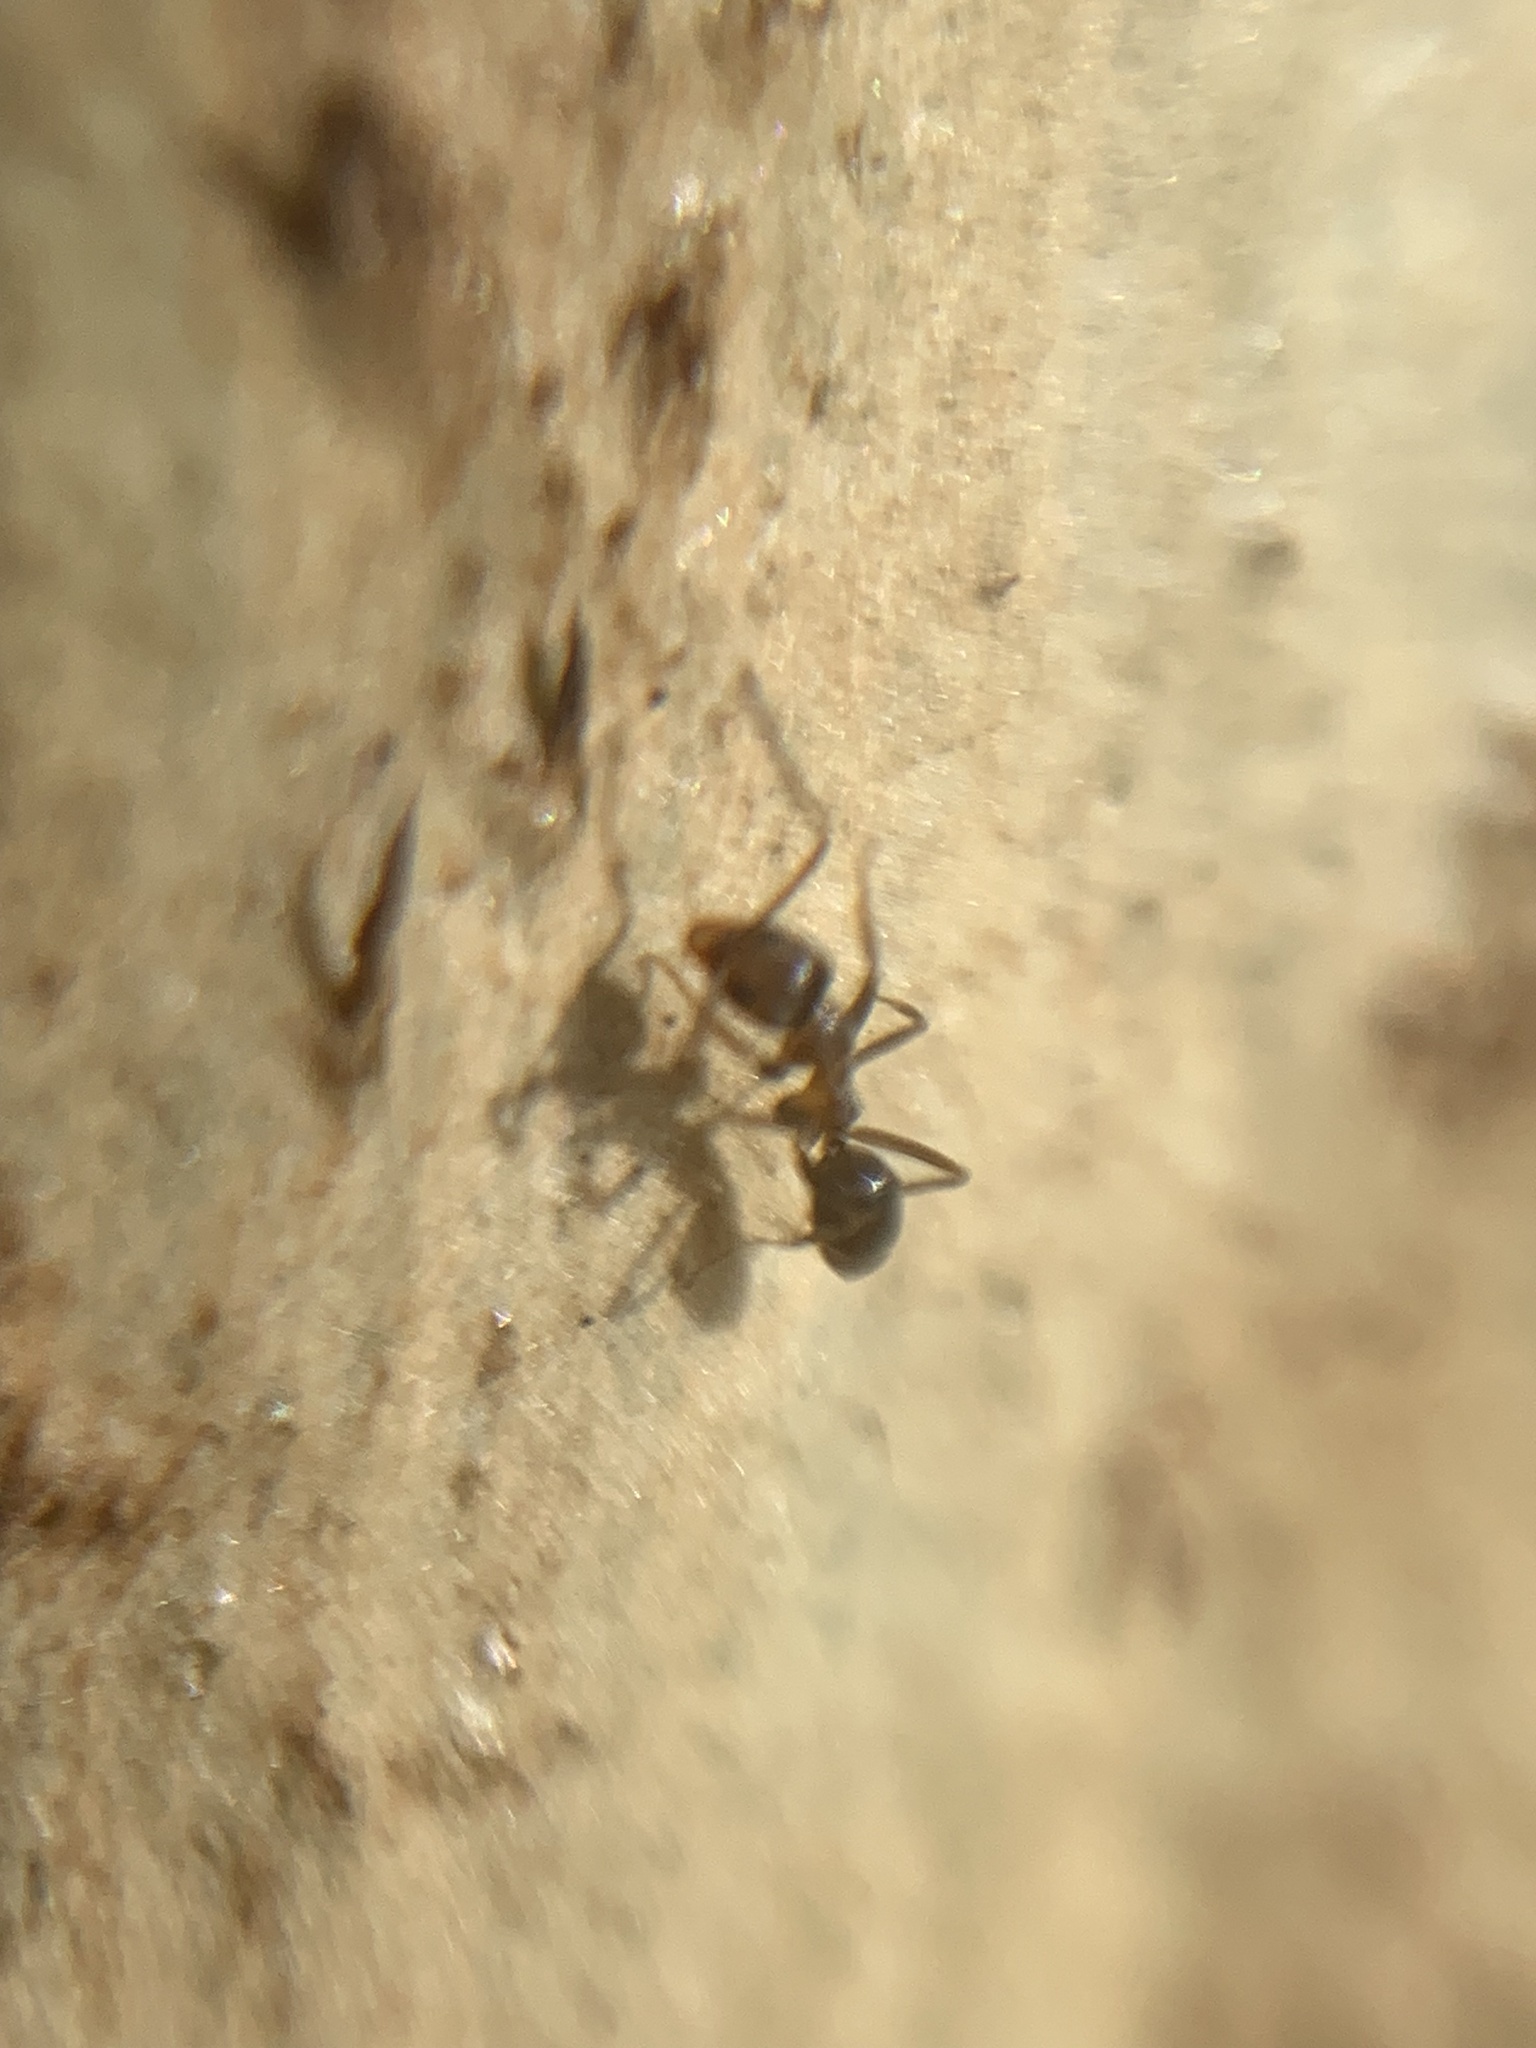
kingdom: Animalia
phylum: Arthropoda
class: Insecta
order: Hymenoptera
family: Formicidae
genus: Linepithema
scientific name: Linepithema humile
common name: Argentine ant
